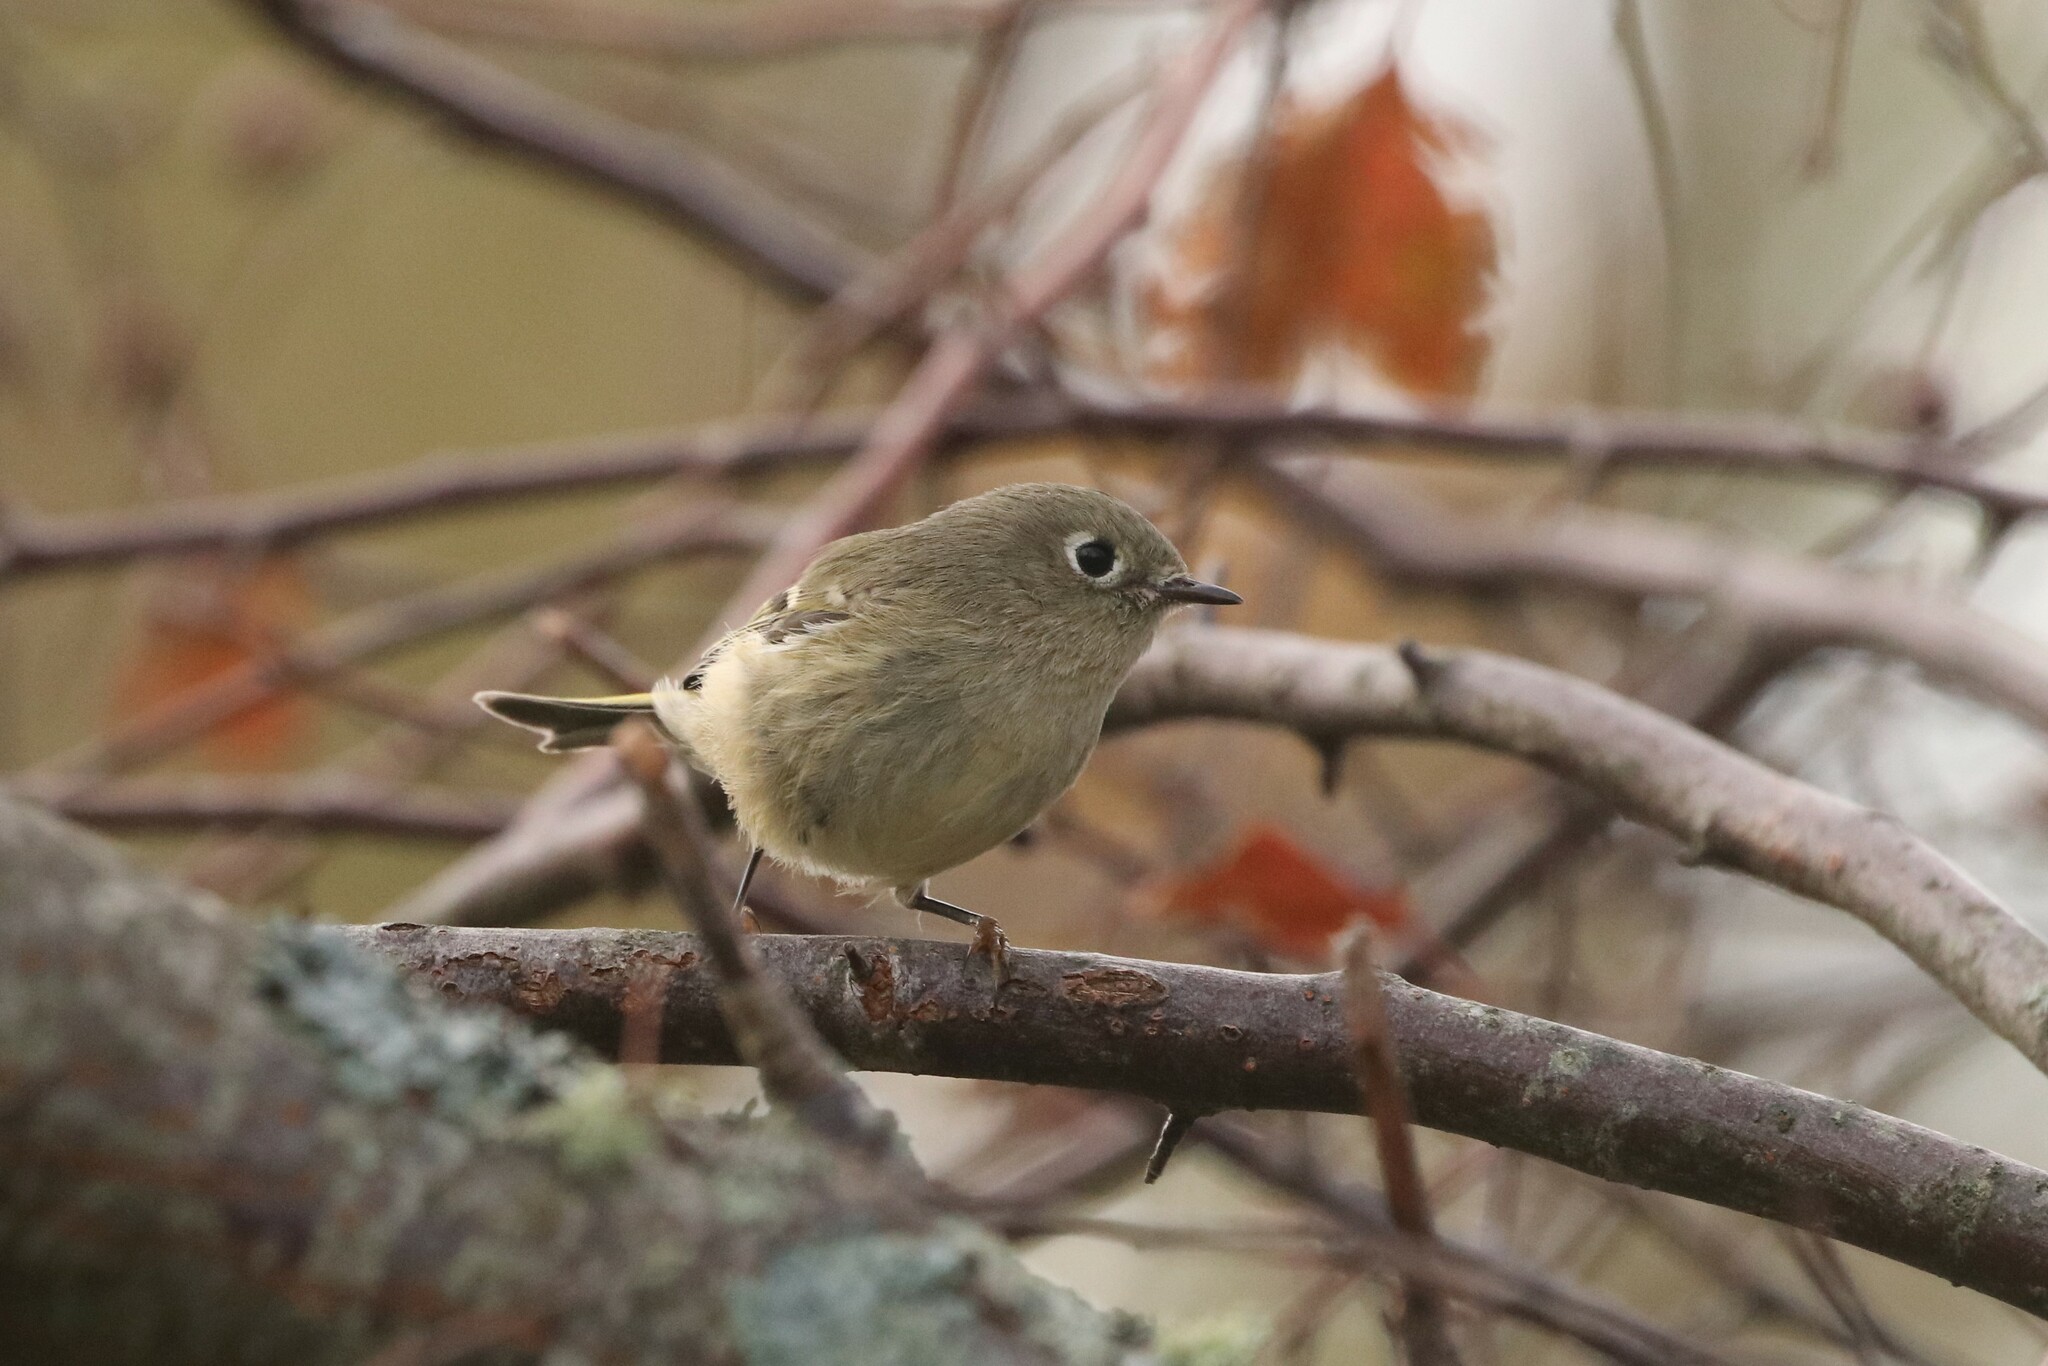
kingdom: Animalia
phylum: Chordata
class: Aves
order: Passeriformes
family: Regulidae
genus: Regulus
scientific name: Regulus calendula
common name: Ruby-crowned kinglet
